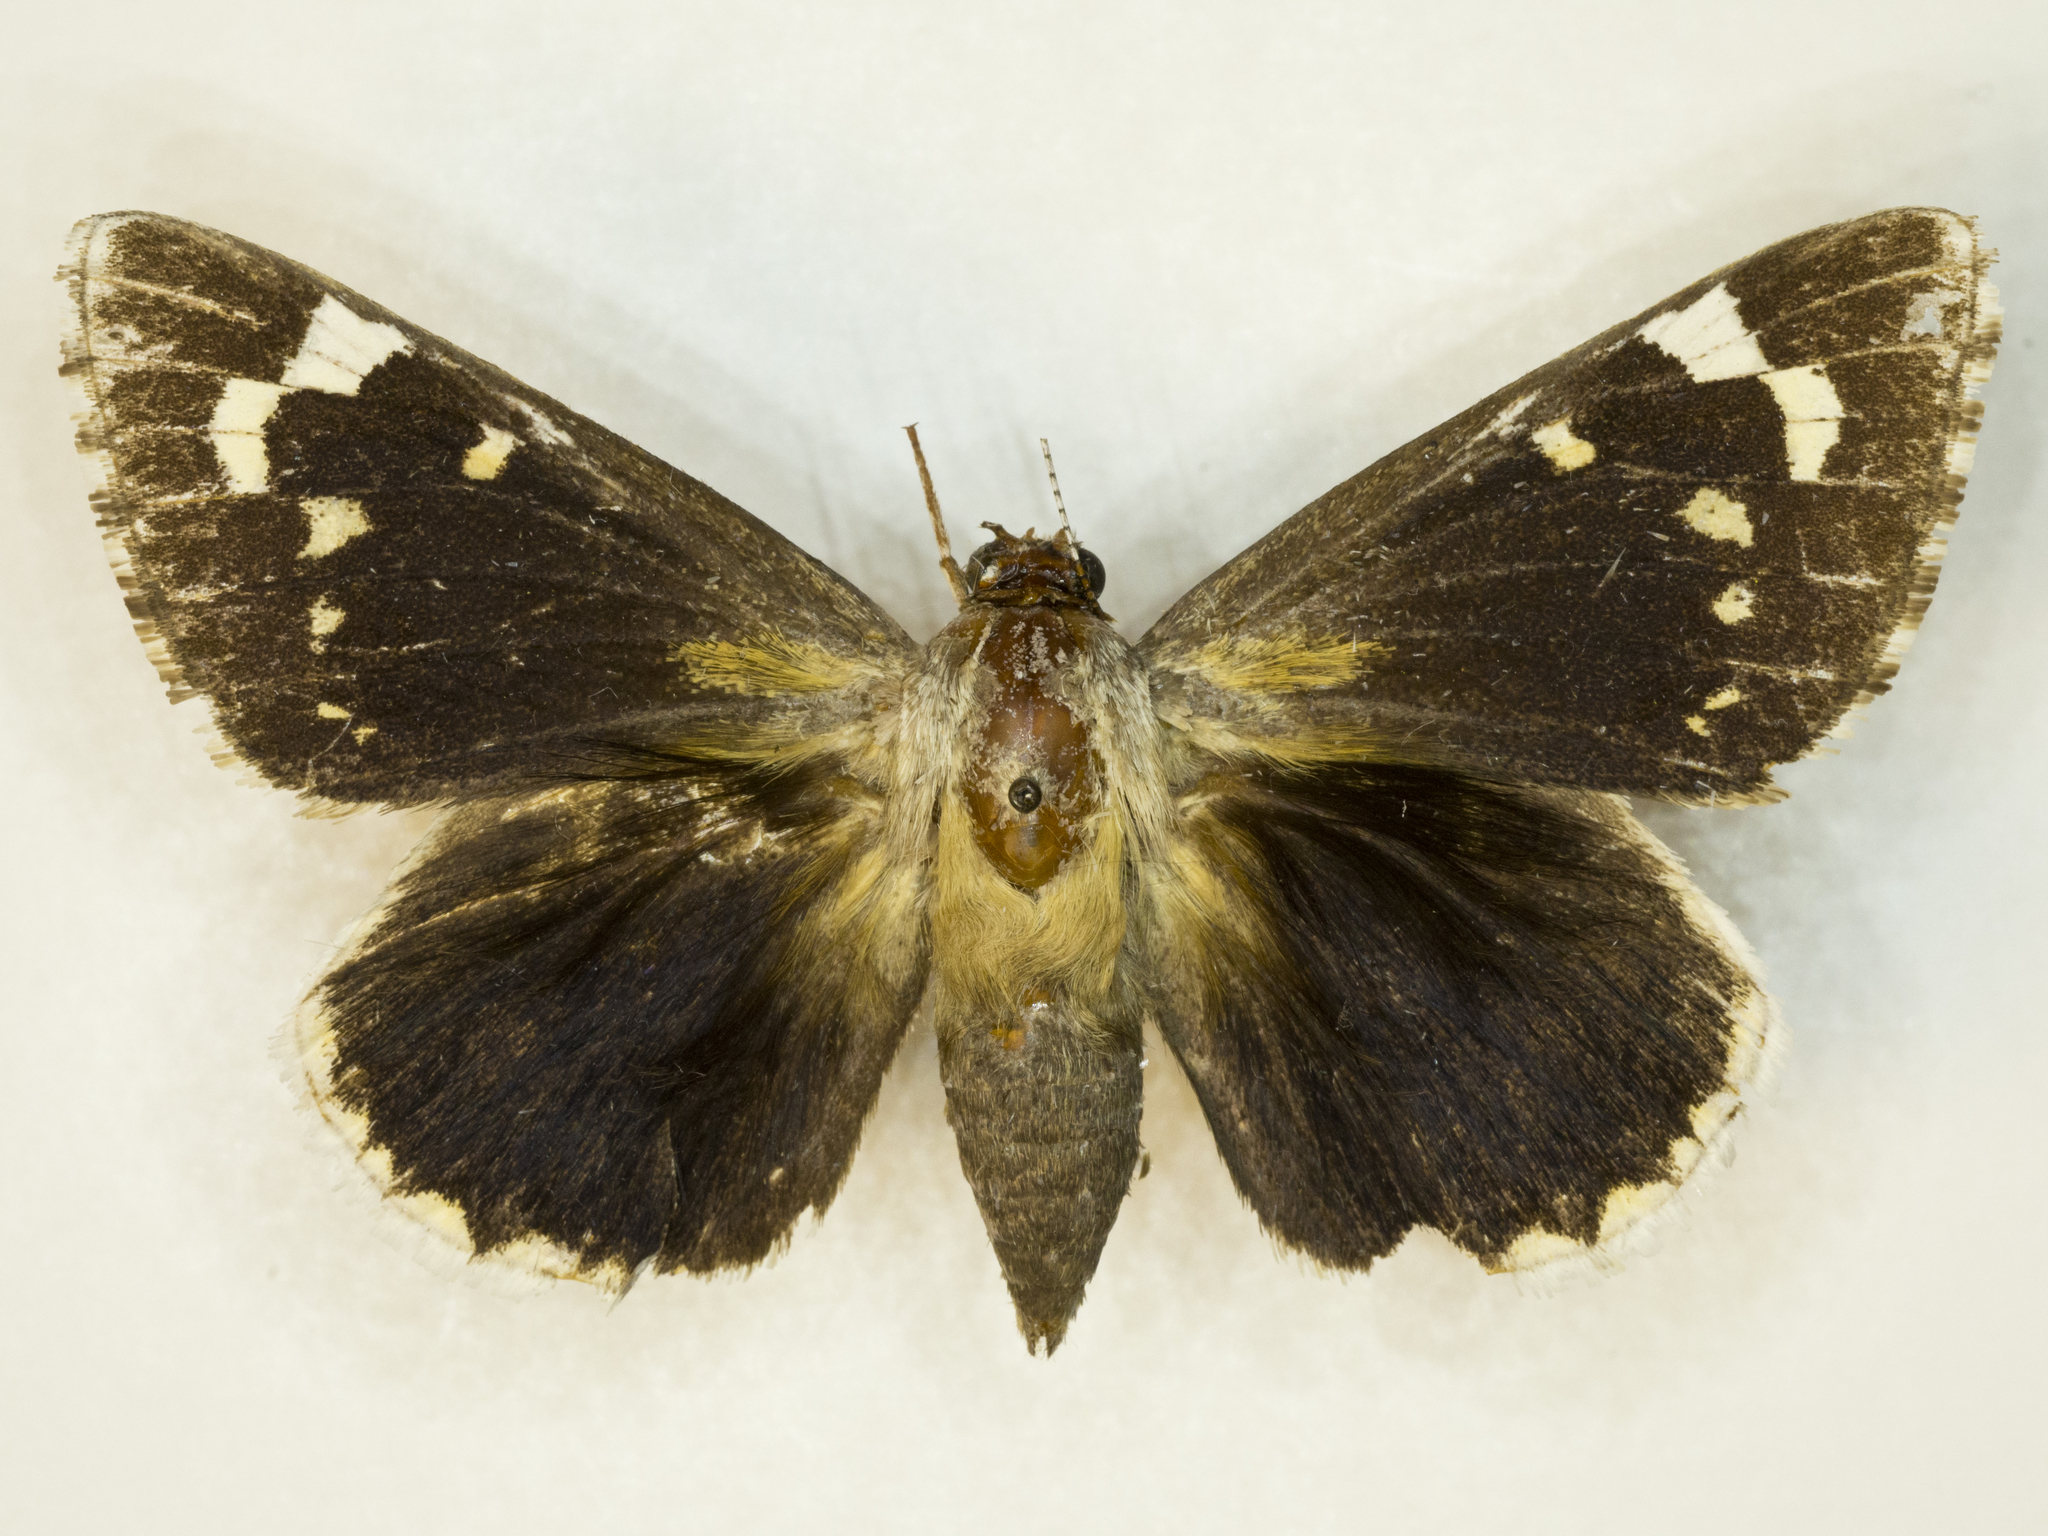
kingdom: Animalia
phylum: Arthropoda
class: Insecta
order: Lepidoptera
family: Hesperiidae
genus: Megathymus
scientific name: Megathymus streckeri
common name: Strecker's giant-skipper
